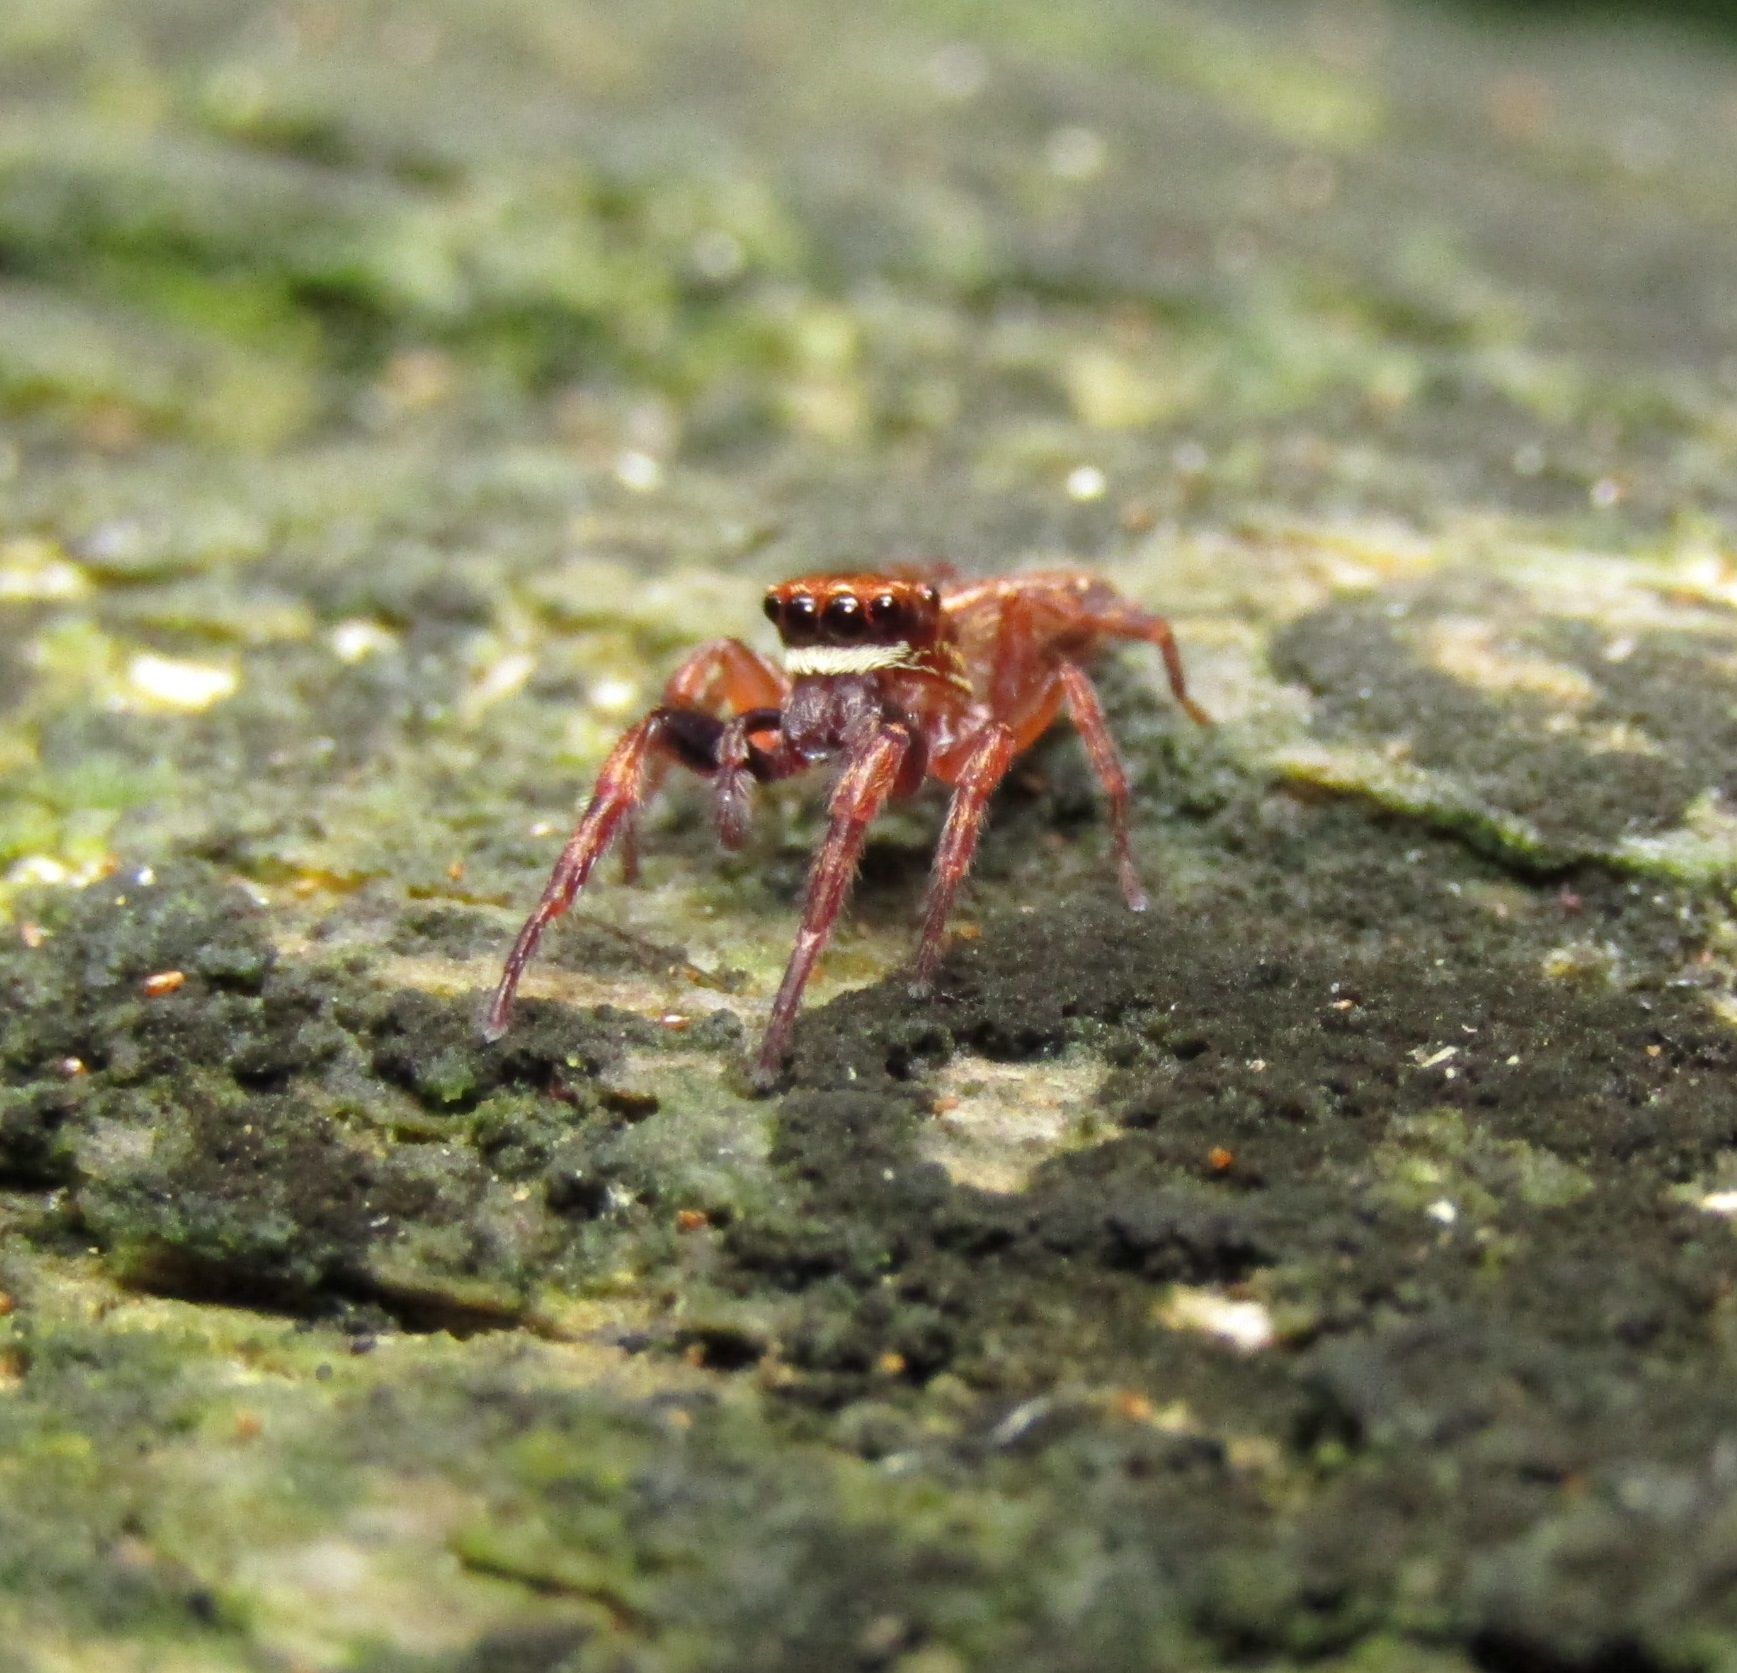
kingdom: Animalia
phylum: Arthropoda
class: Arachnida
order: Araneae
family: Salticidae
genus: Trite
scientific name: Trite auricoma
